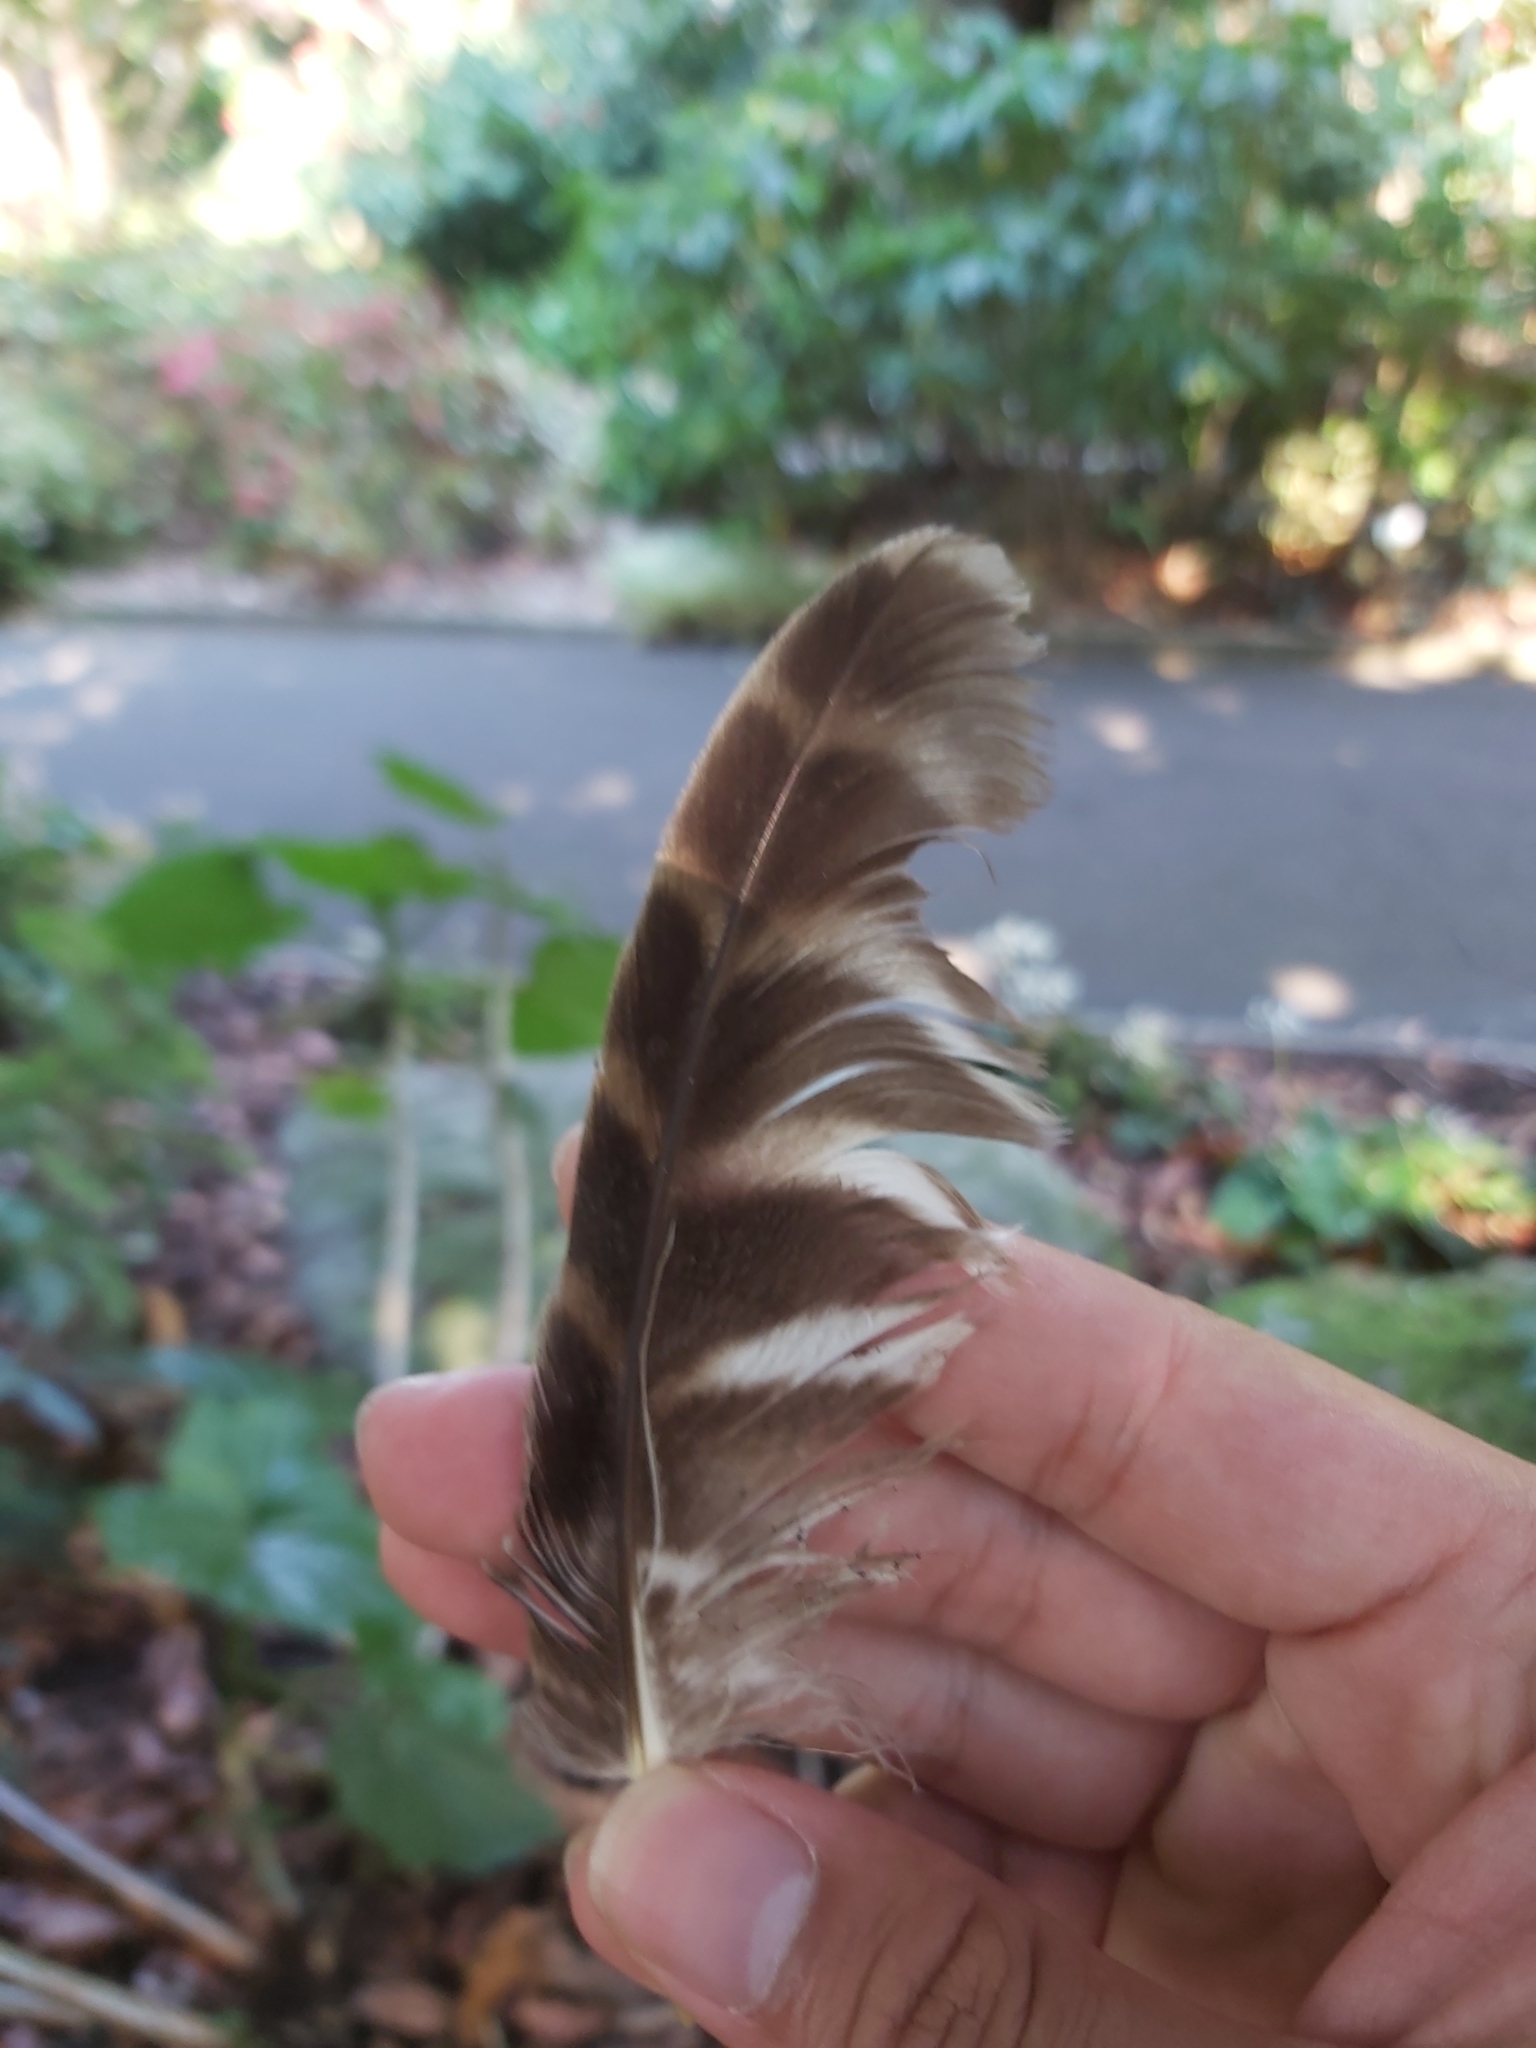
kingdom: Animalia
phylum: Chordata
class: Aves
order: Strigiformes
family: Strigidae
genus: Ninox
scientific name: Ninox strenua
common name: Powerful owl
